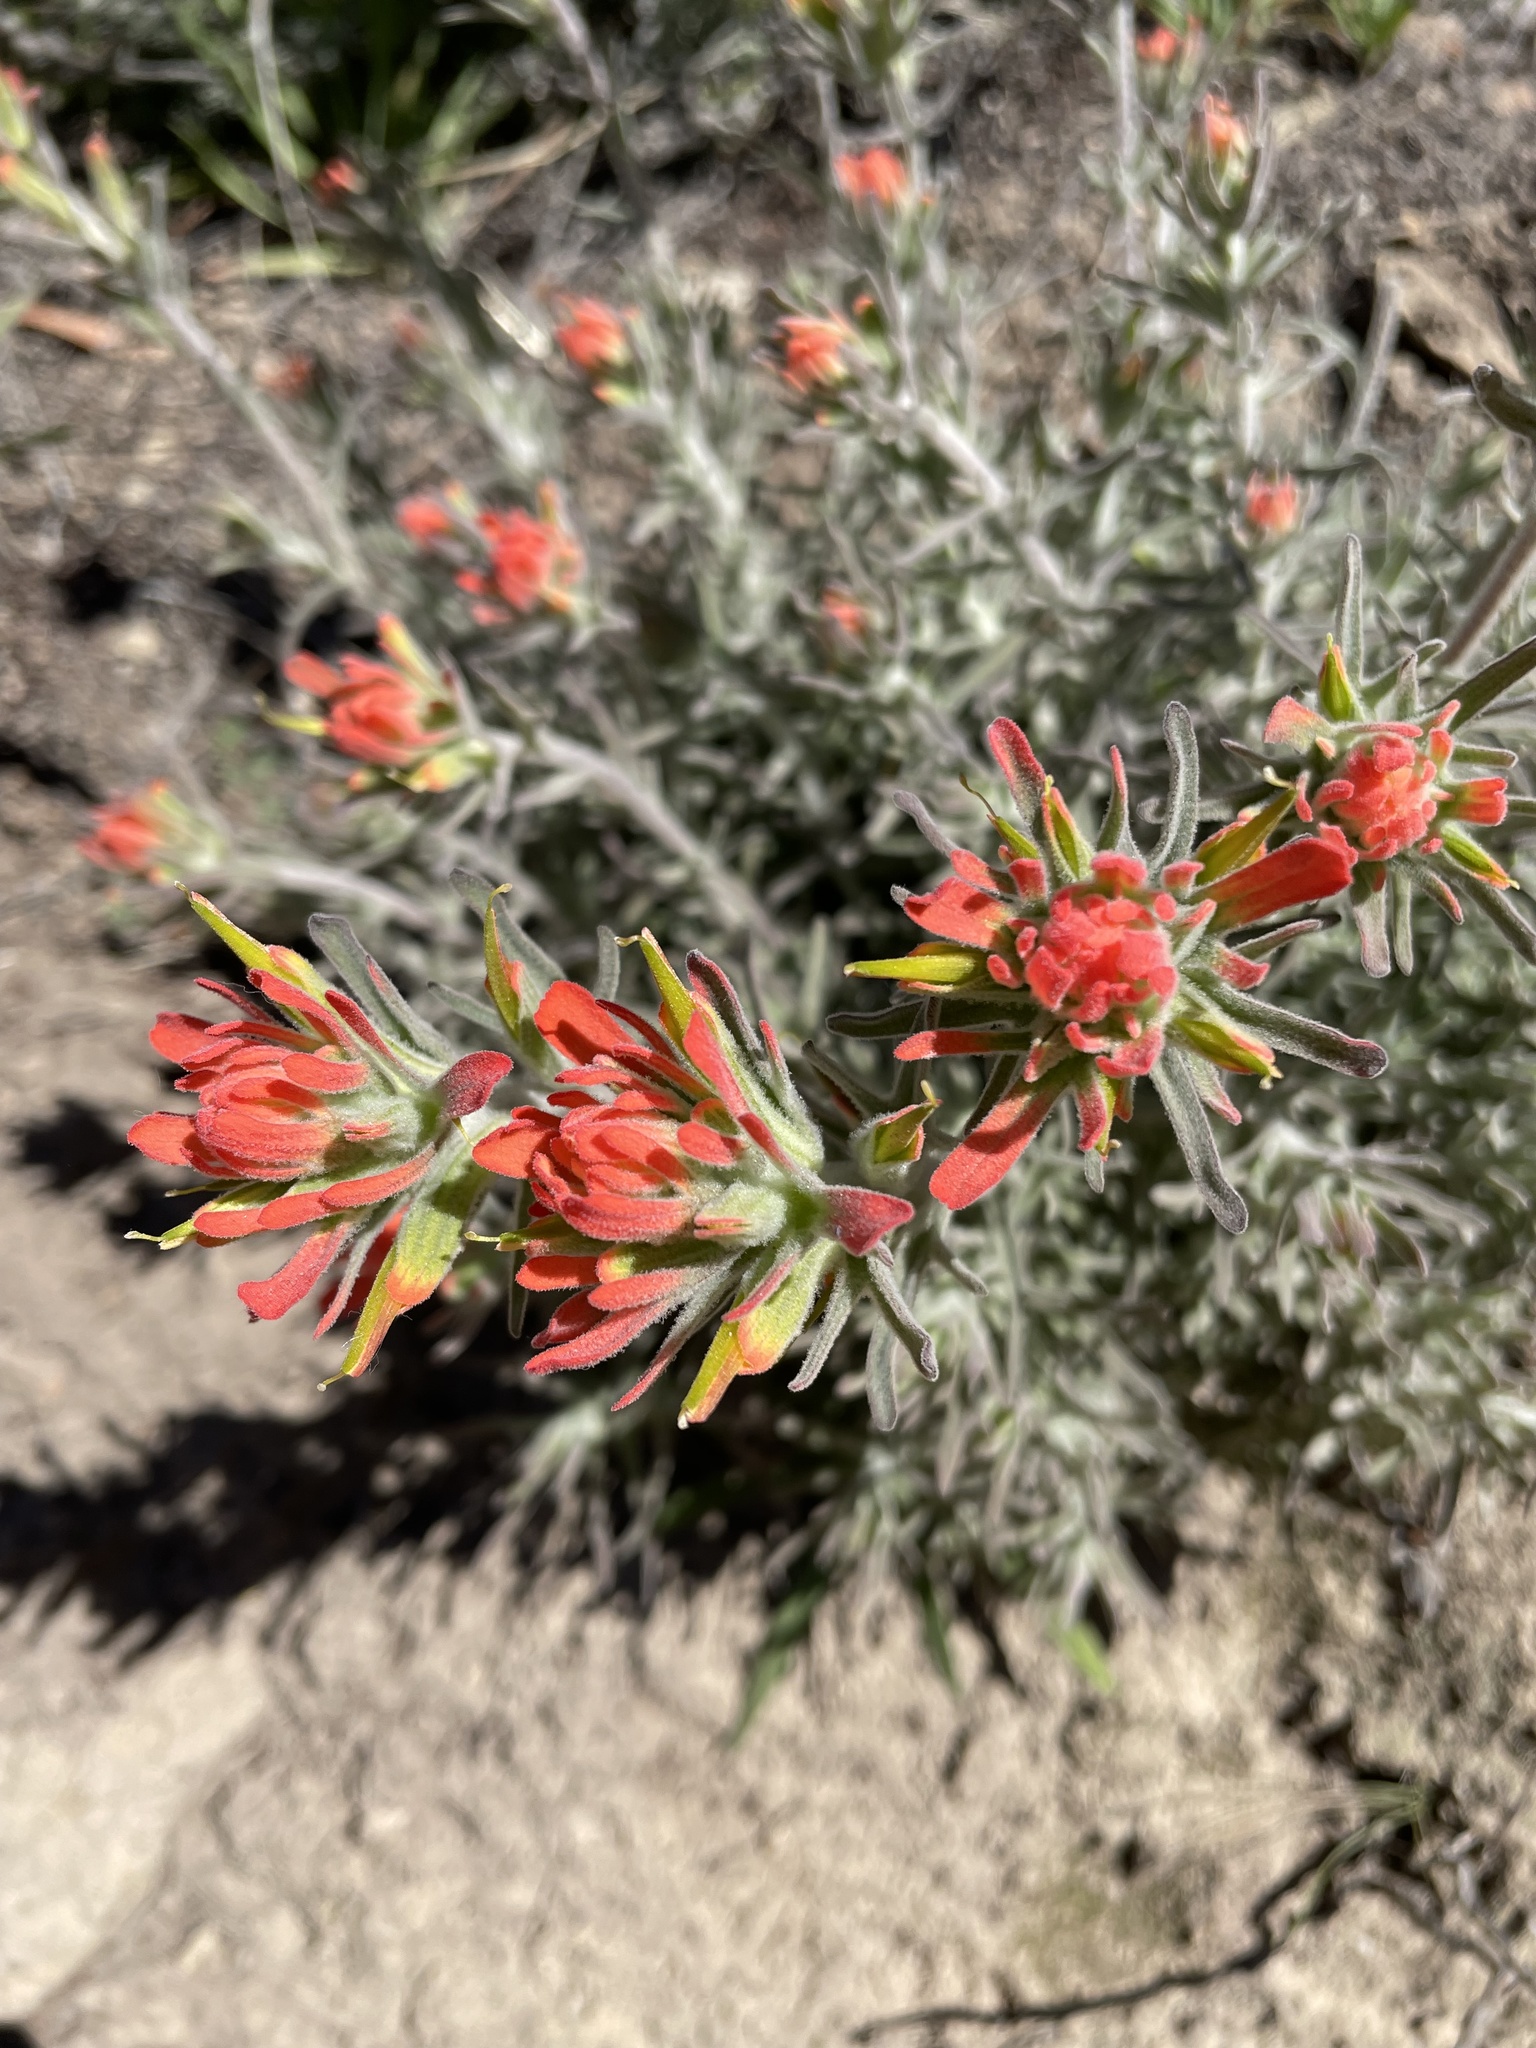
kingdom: Plantae
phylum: Tracheophyta
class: Magnoliopsida
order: Lamiales
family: Orobanchaceae
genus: Castilleja
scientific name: Castilleja foliolosa
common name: Woolly indian paintbrush
